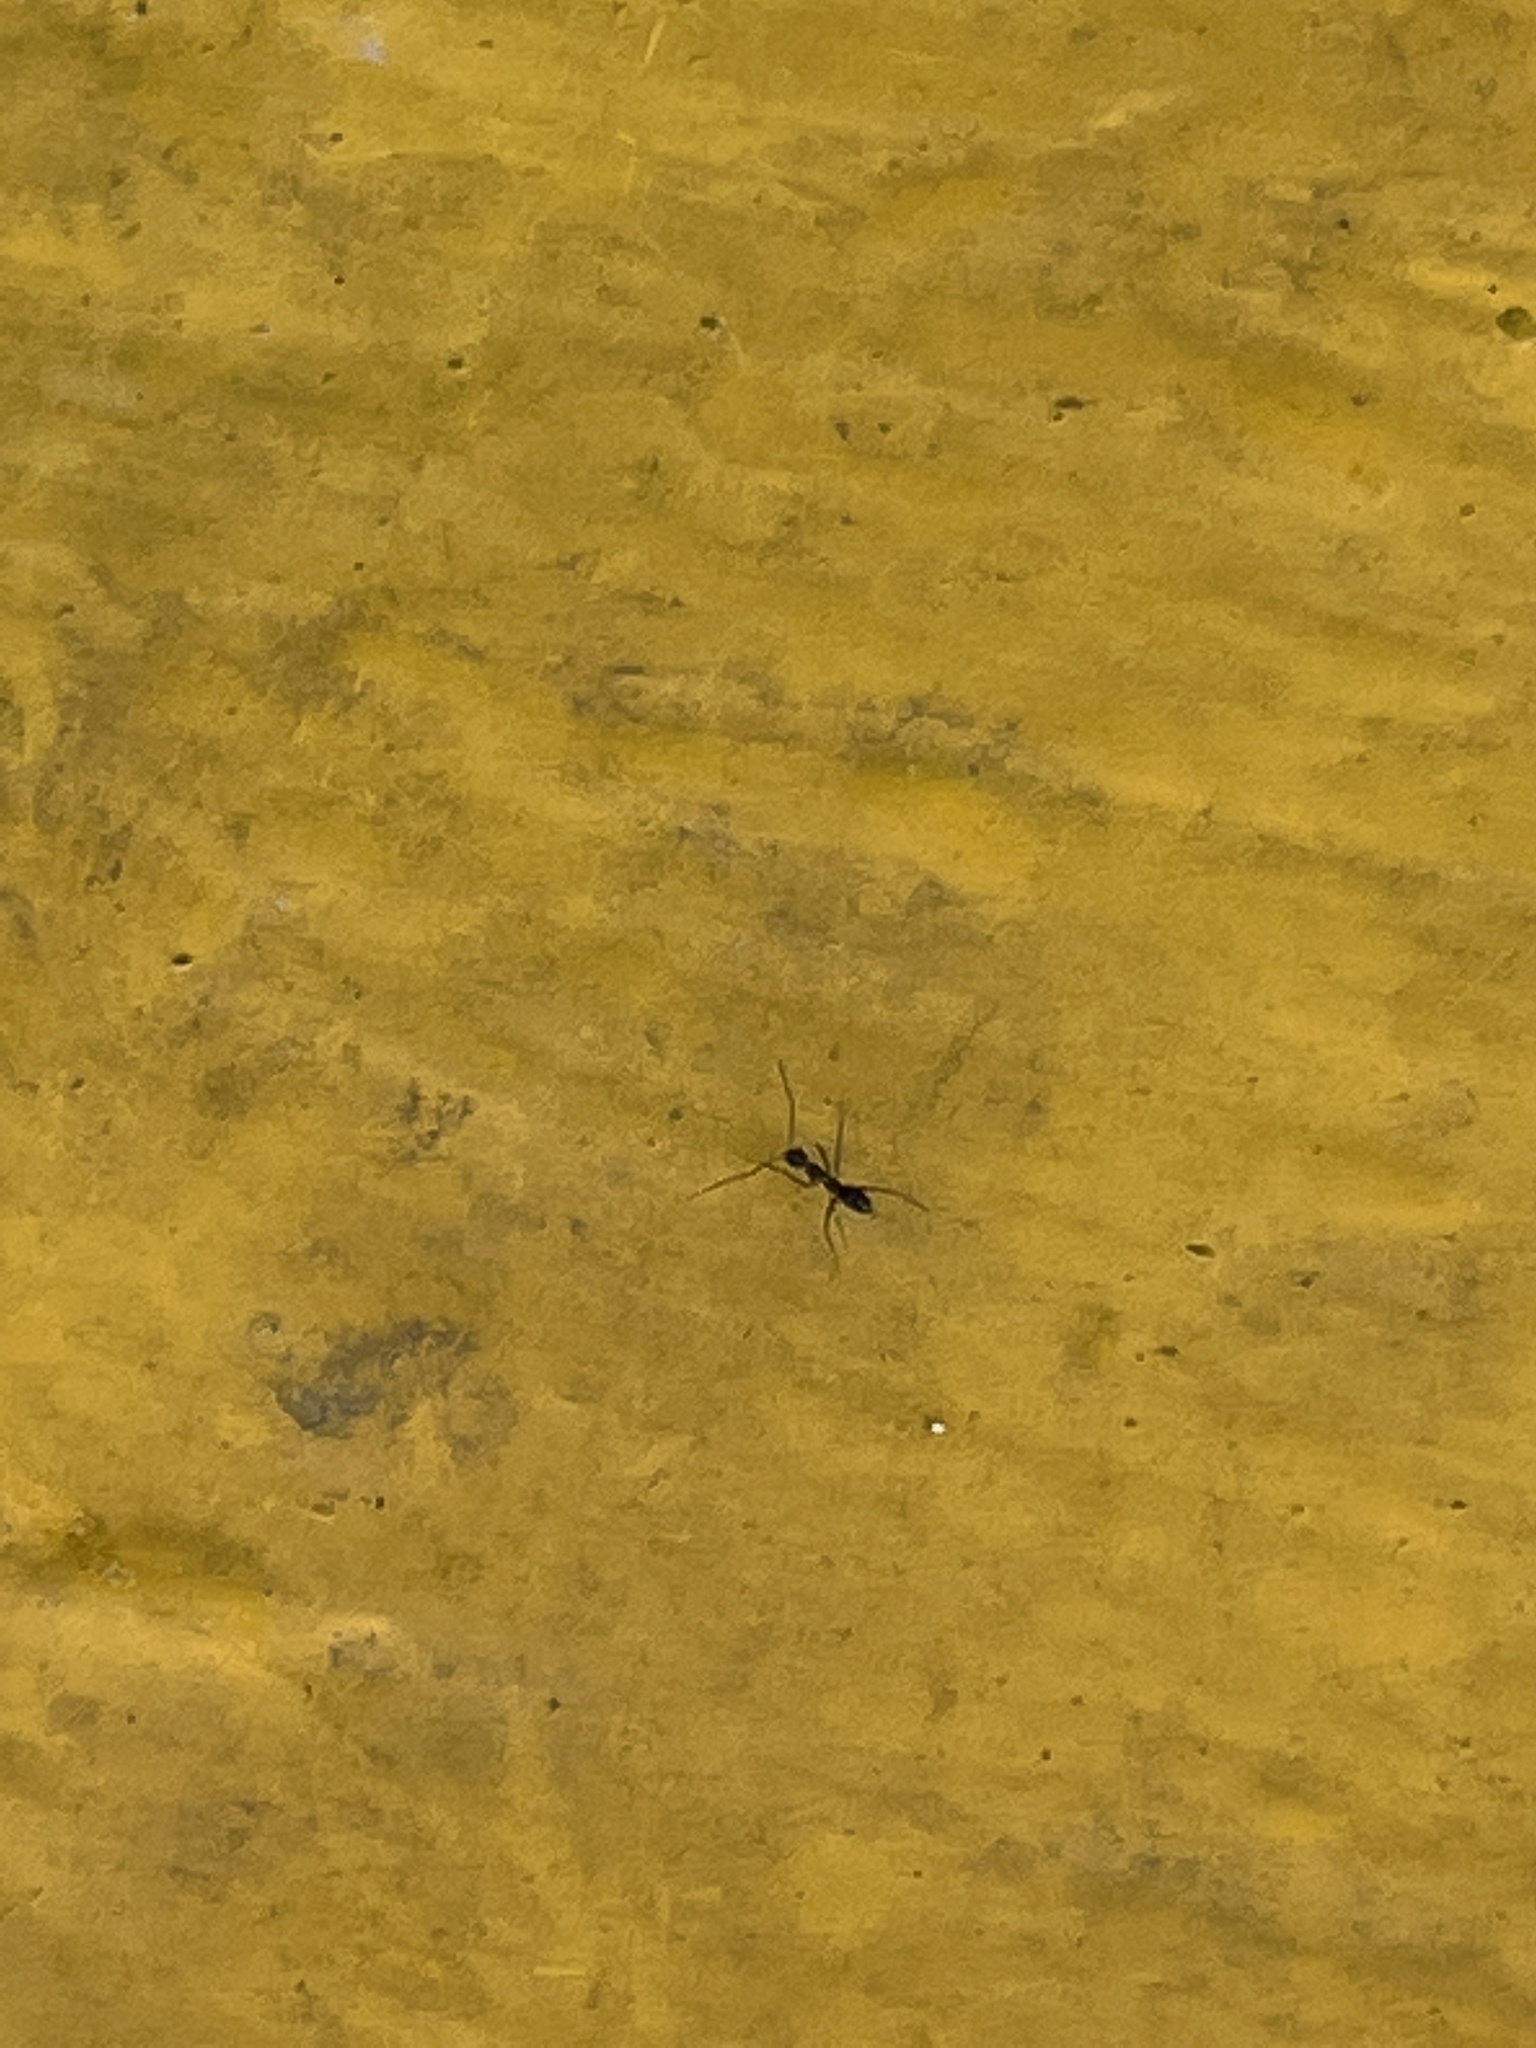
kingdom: Animalia
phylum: Arthropoda
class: Insecta
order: Hymenoptera
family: Formicidae
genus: Paratrechina
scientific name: Paratrechina longicornis
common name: Longhorned crazy ant
